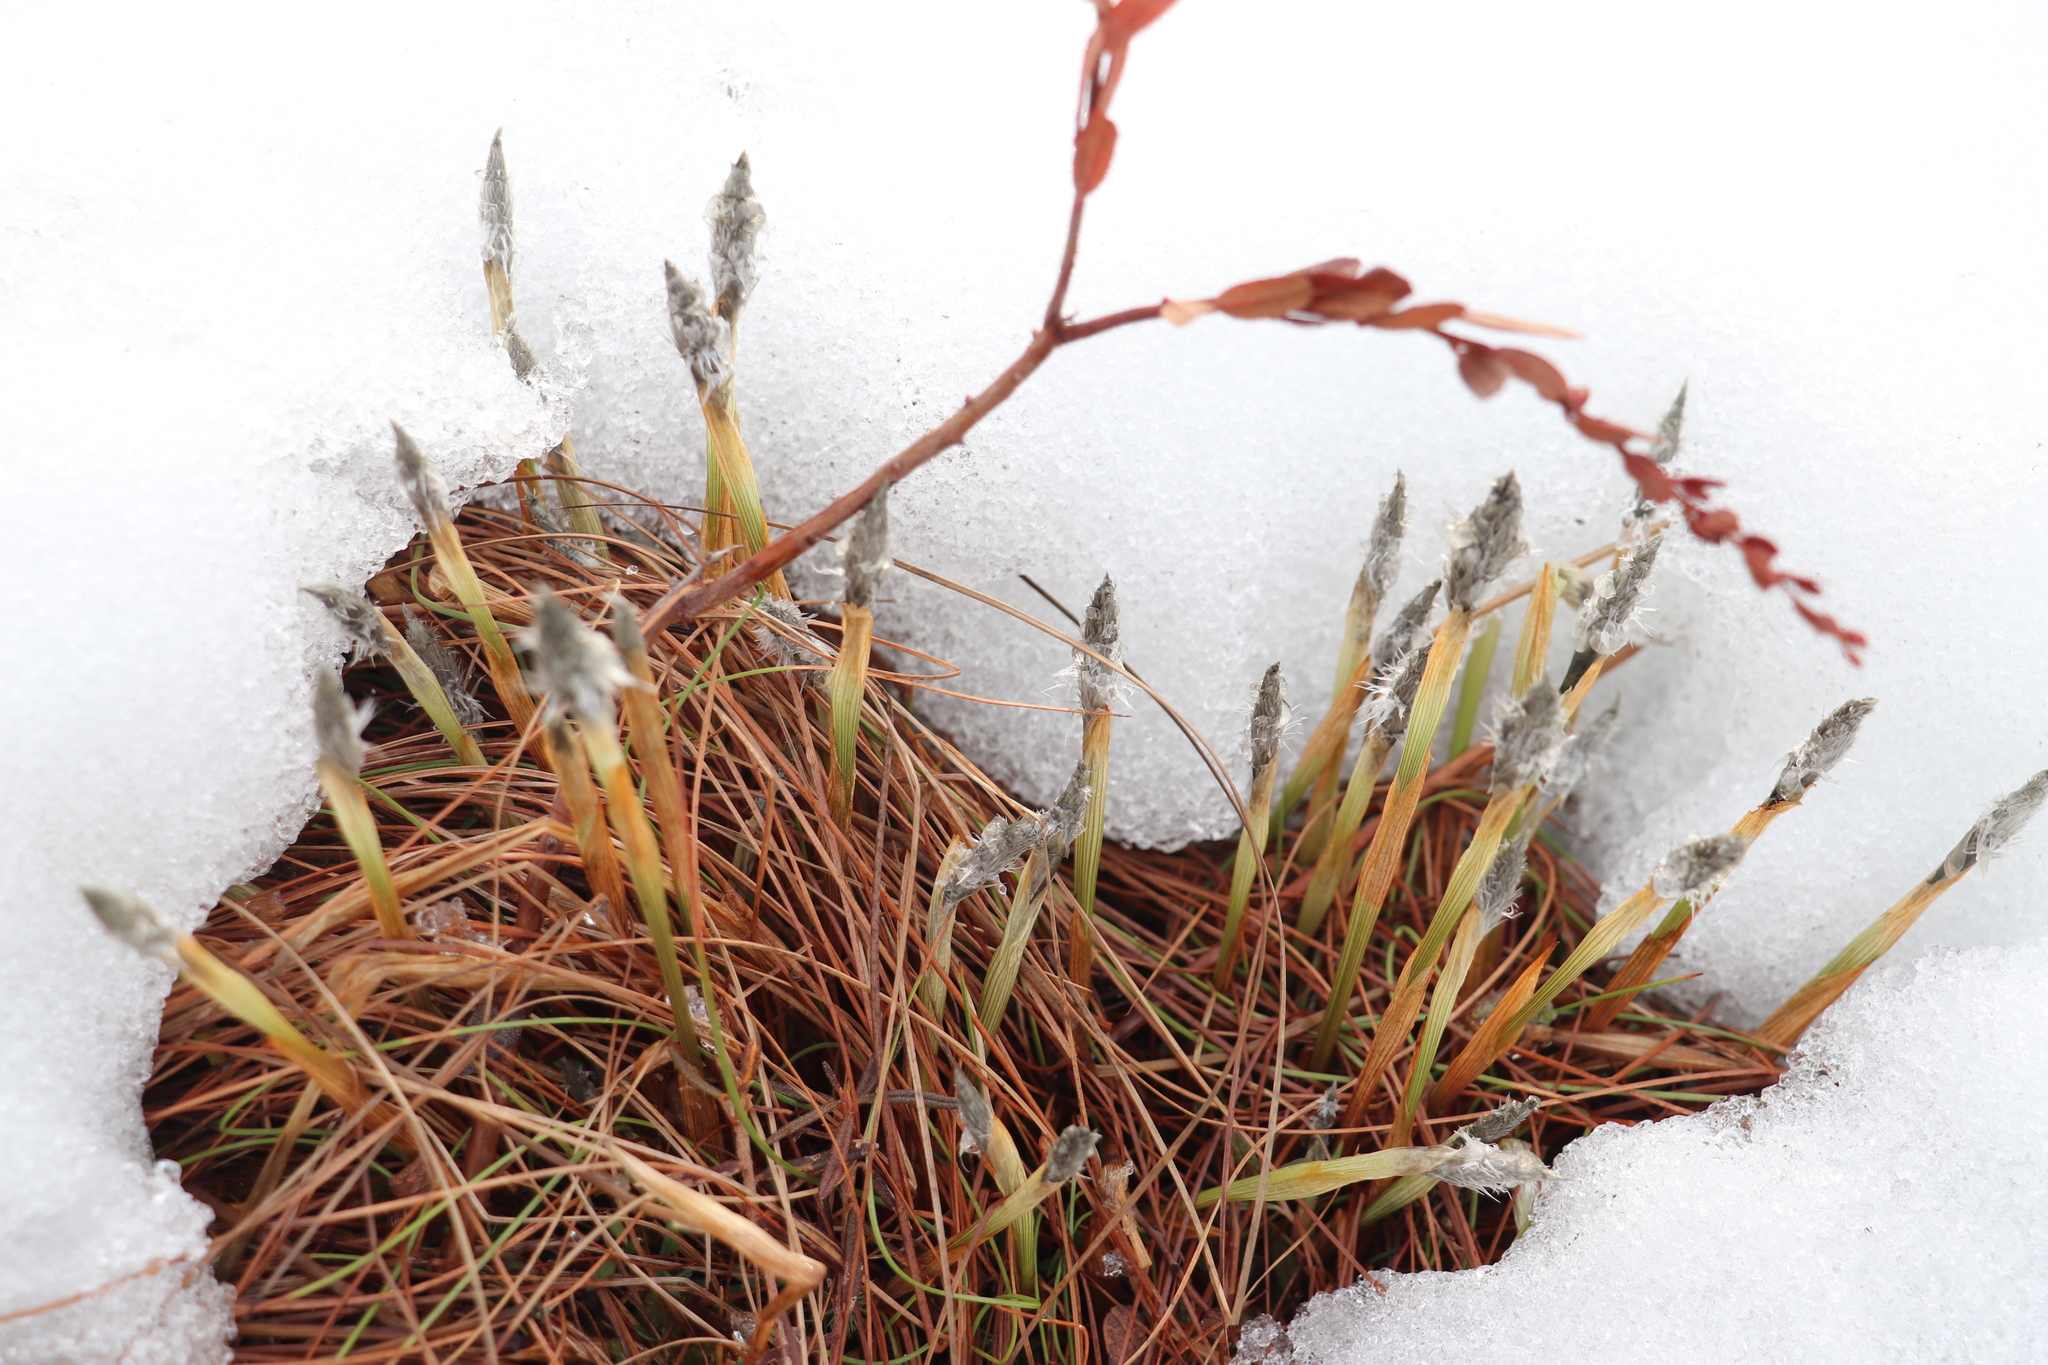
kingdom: Plantae
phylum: Tracheophyta
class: Liliopsida
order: Poales
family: Cyperaceae
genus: Eriophorum
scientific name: Eriophorum vaginatum
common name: Hare's-tail cottongrass
